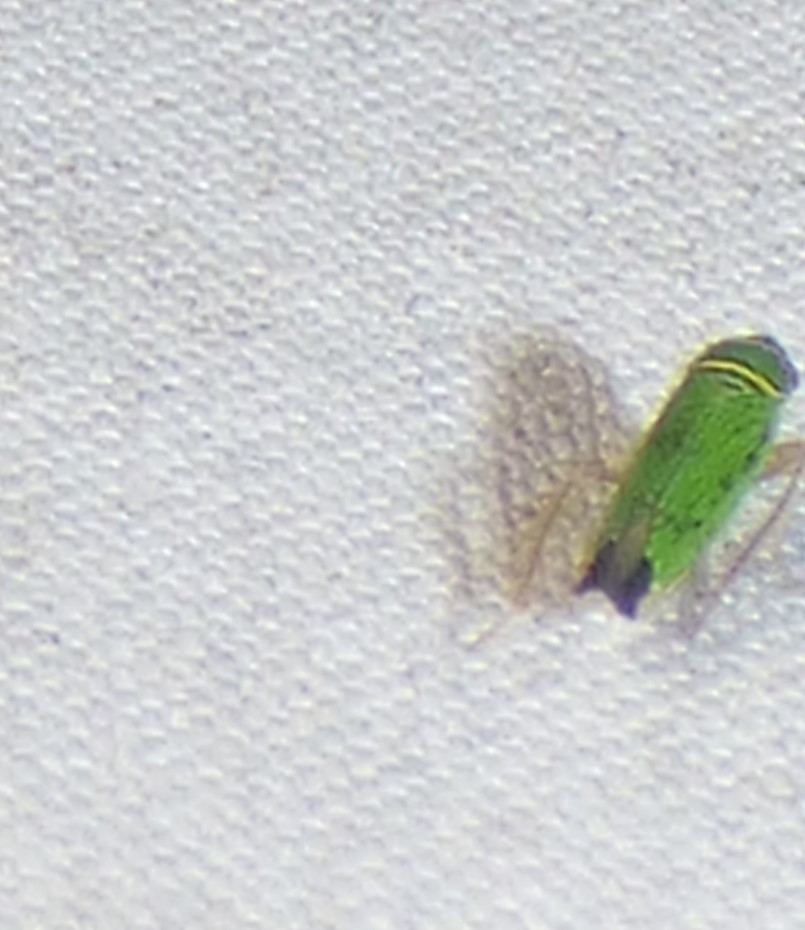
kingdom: Animalia
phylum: Arthropoda
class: Insecta
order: Hemiptera
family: Cicadellidae
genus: Tylozygus
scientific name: Tylozygus geometricus
